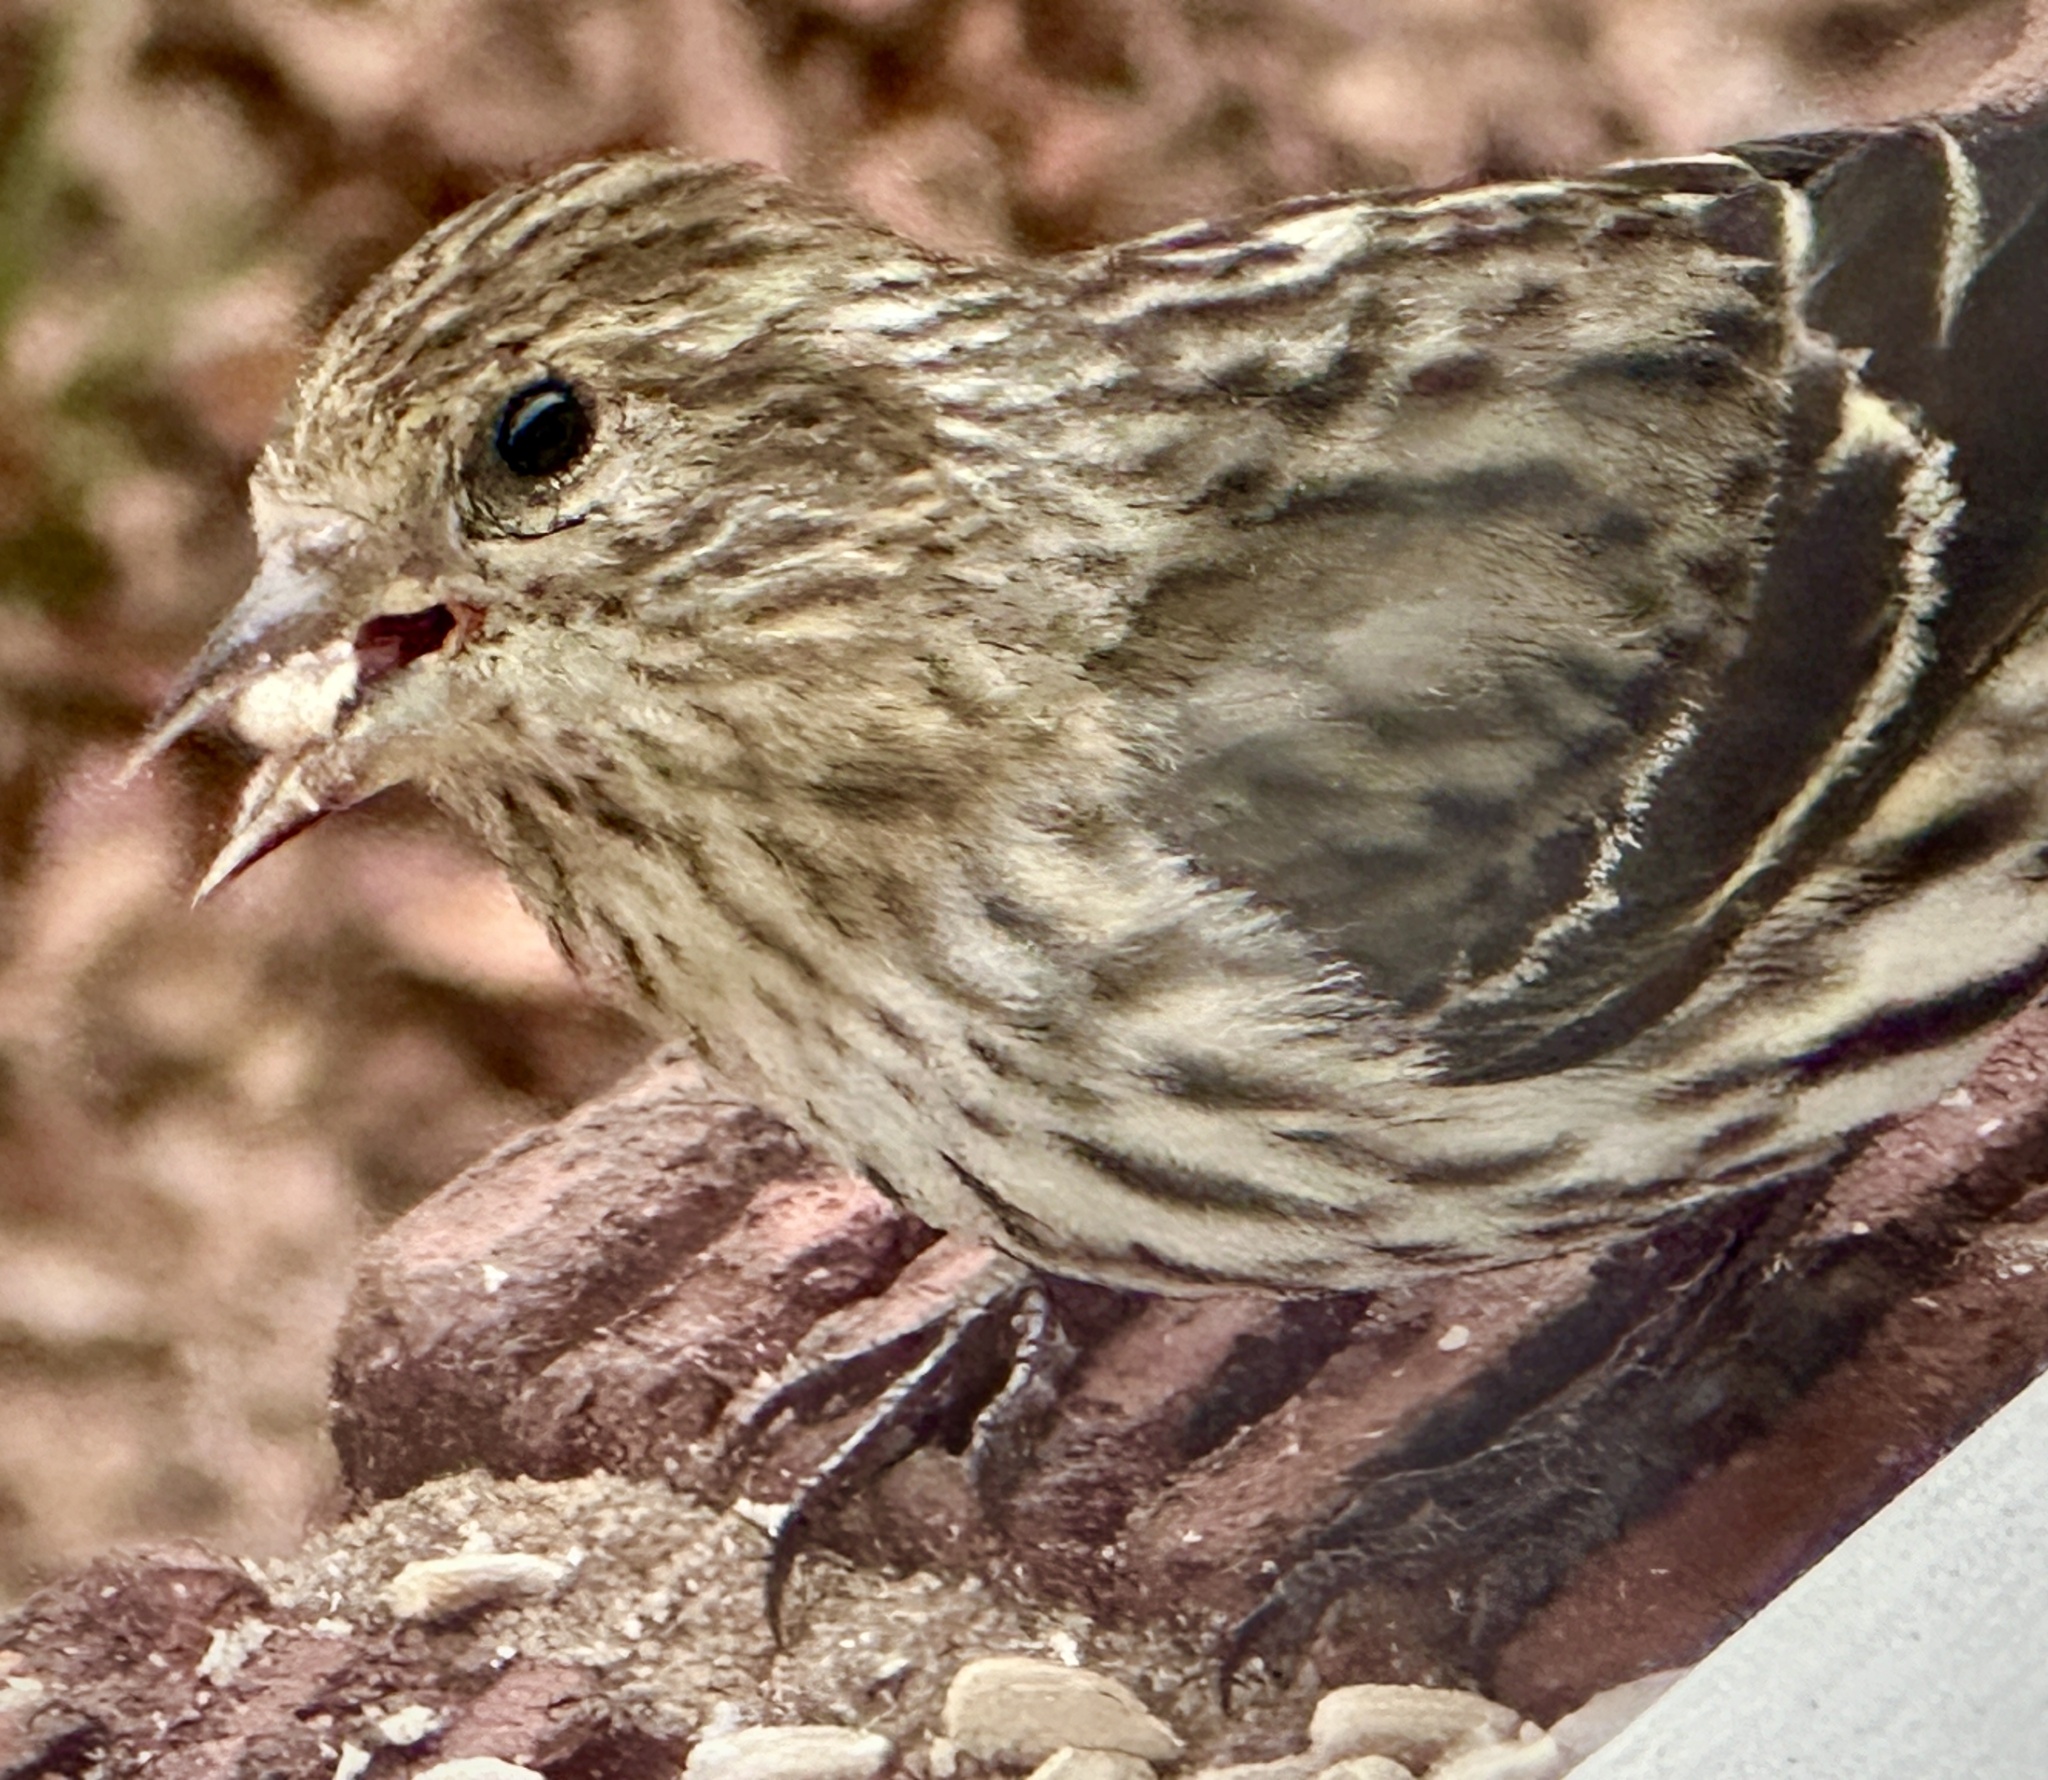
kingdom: Animalia
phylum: Chordata
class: Aves
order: Passeriformes
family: Fringillidae
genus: Spinus
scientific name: Spinus pinus
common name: Pine siskin
